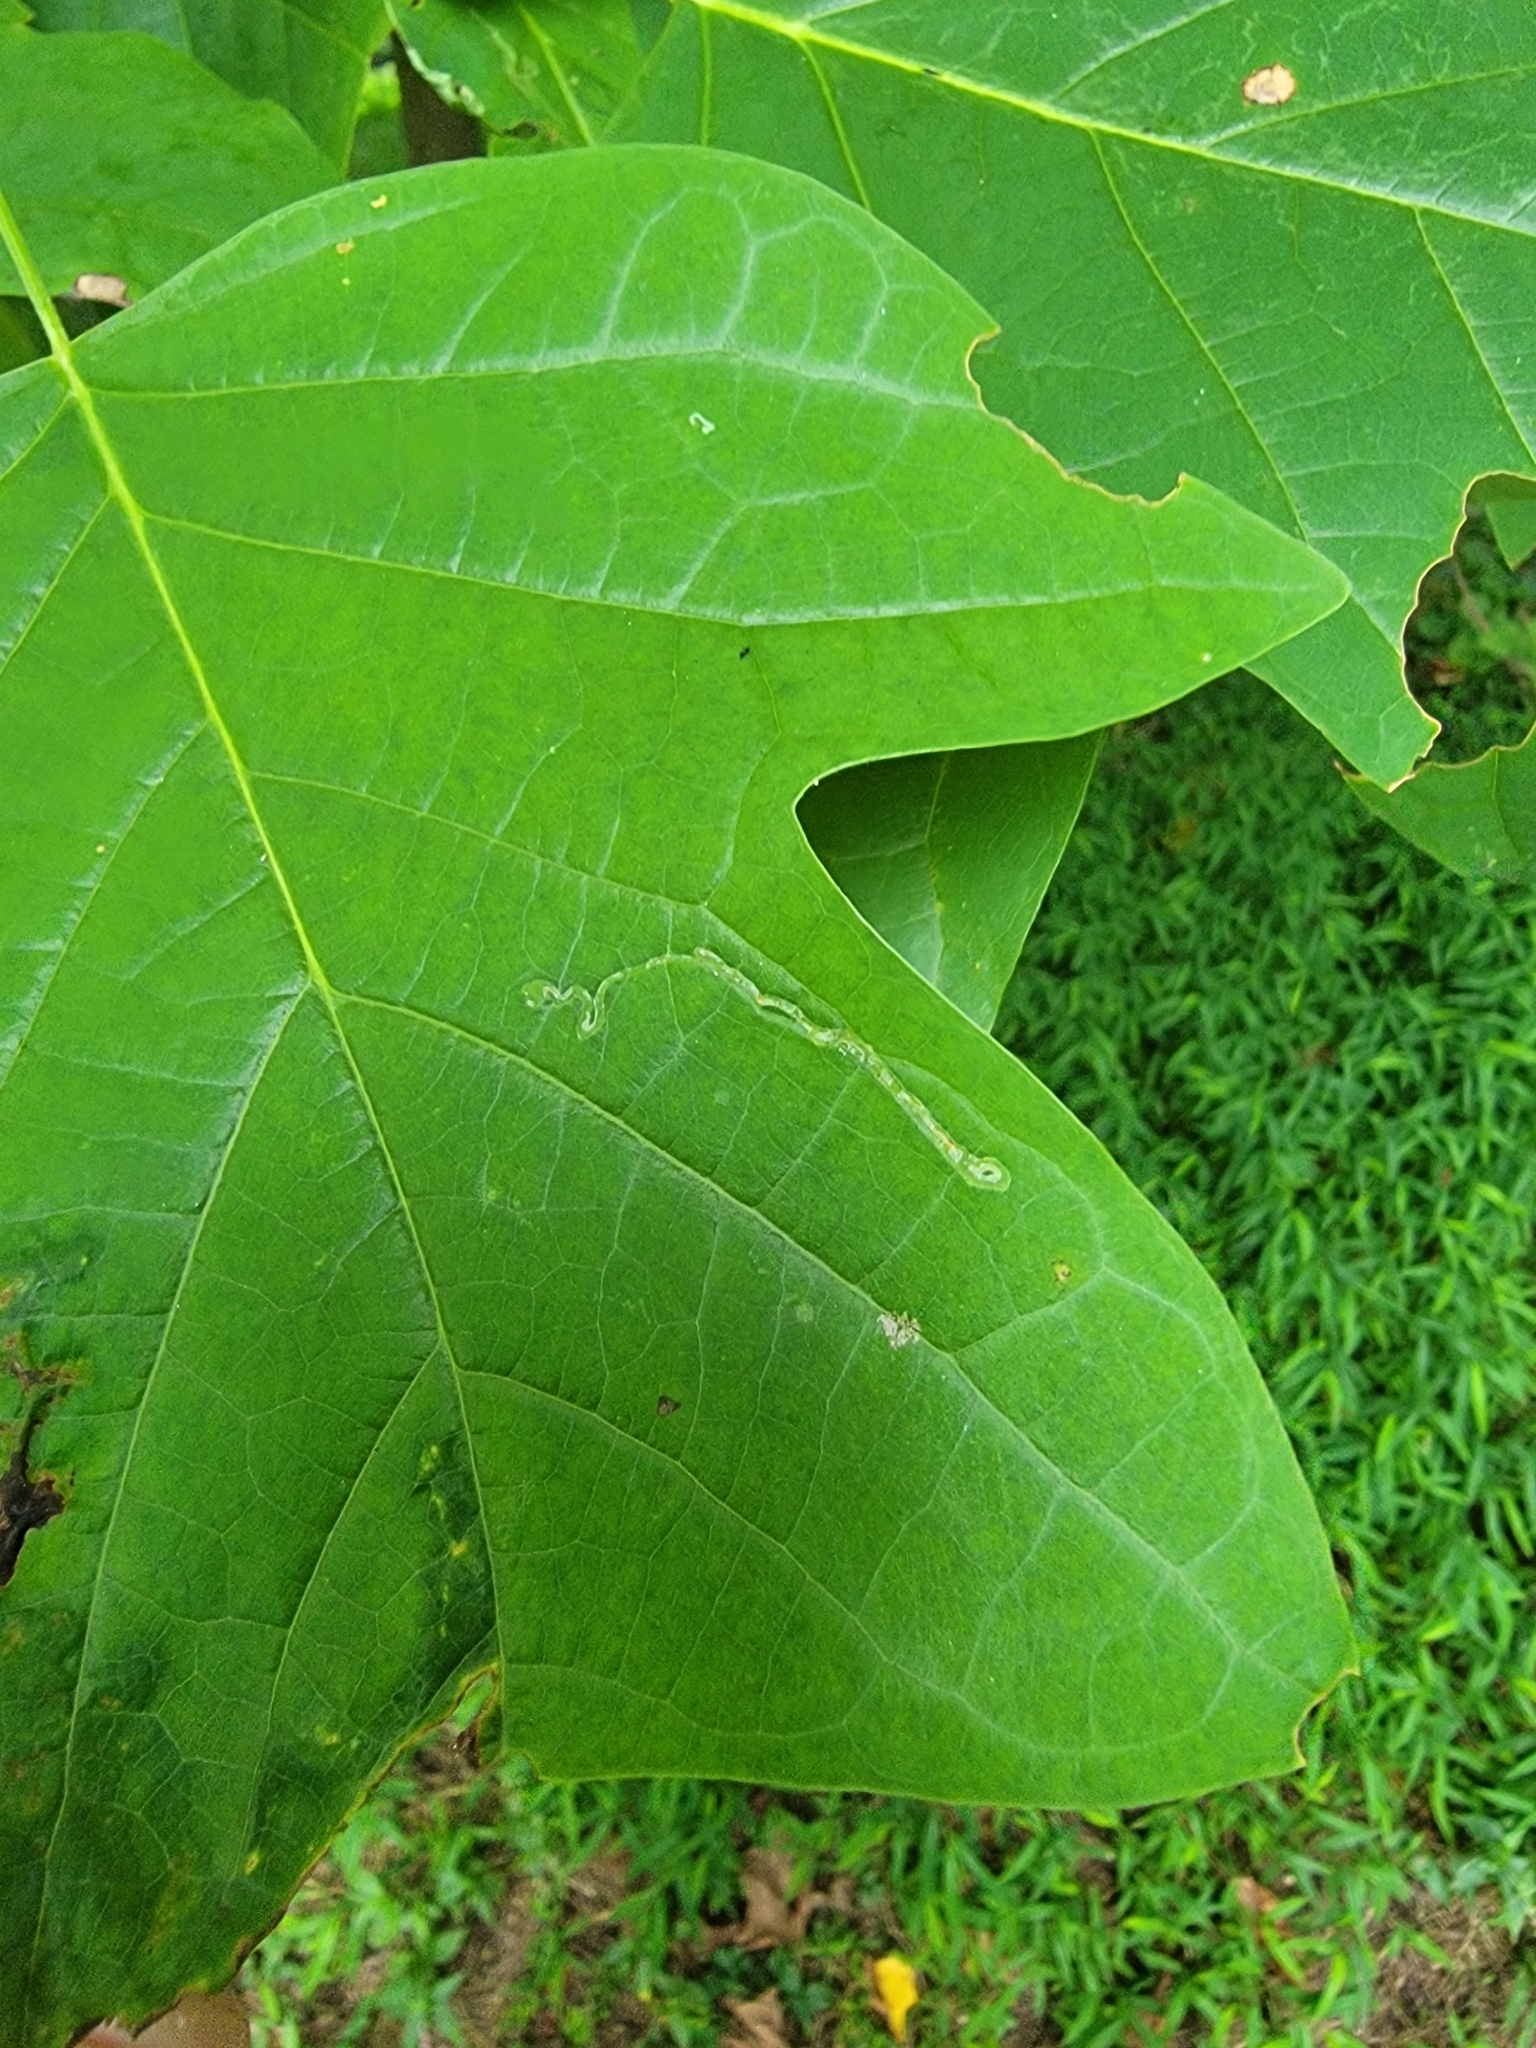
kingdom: Animalia
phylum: Arthropoda
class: Insecta
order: Lepidoptera
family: Gracillariidae
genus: Phyllocnistis
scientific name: Phyllocnistis liriodendronella
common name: Tulip tree leaf miner
